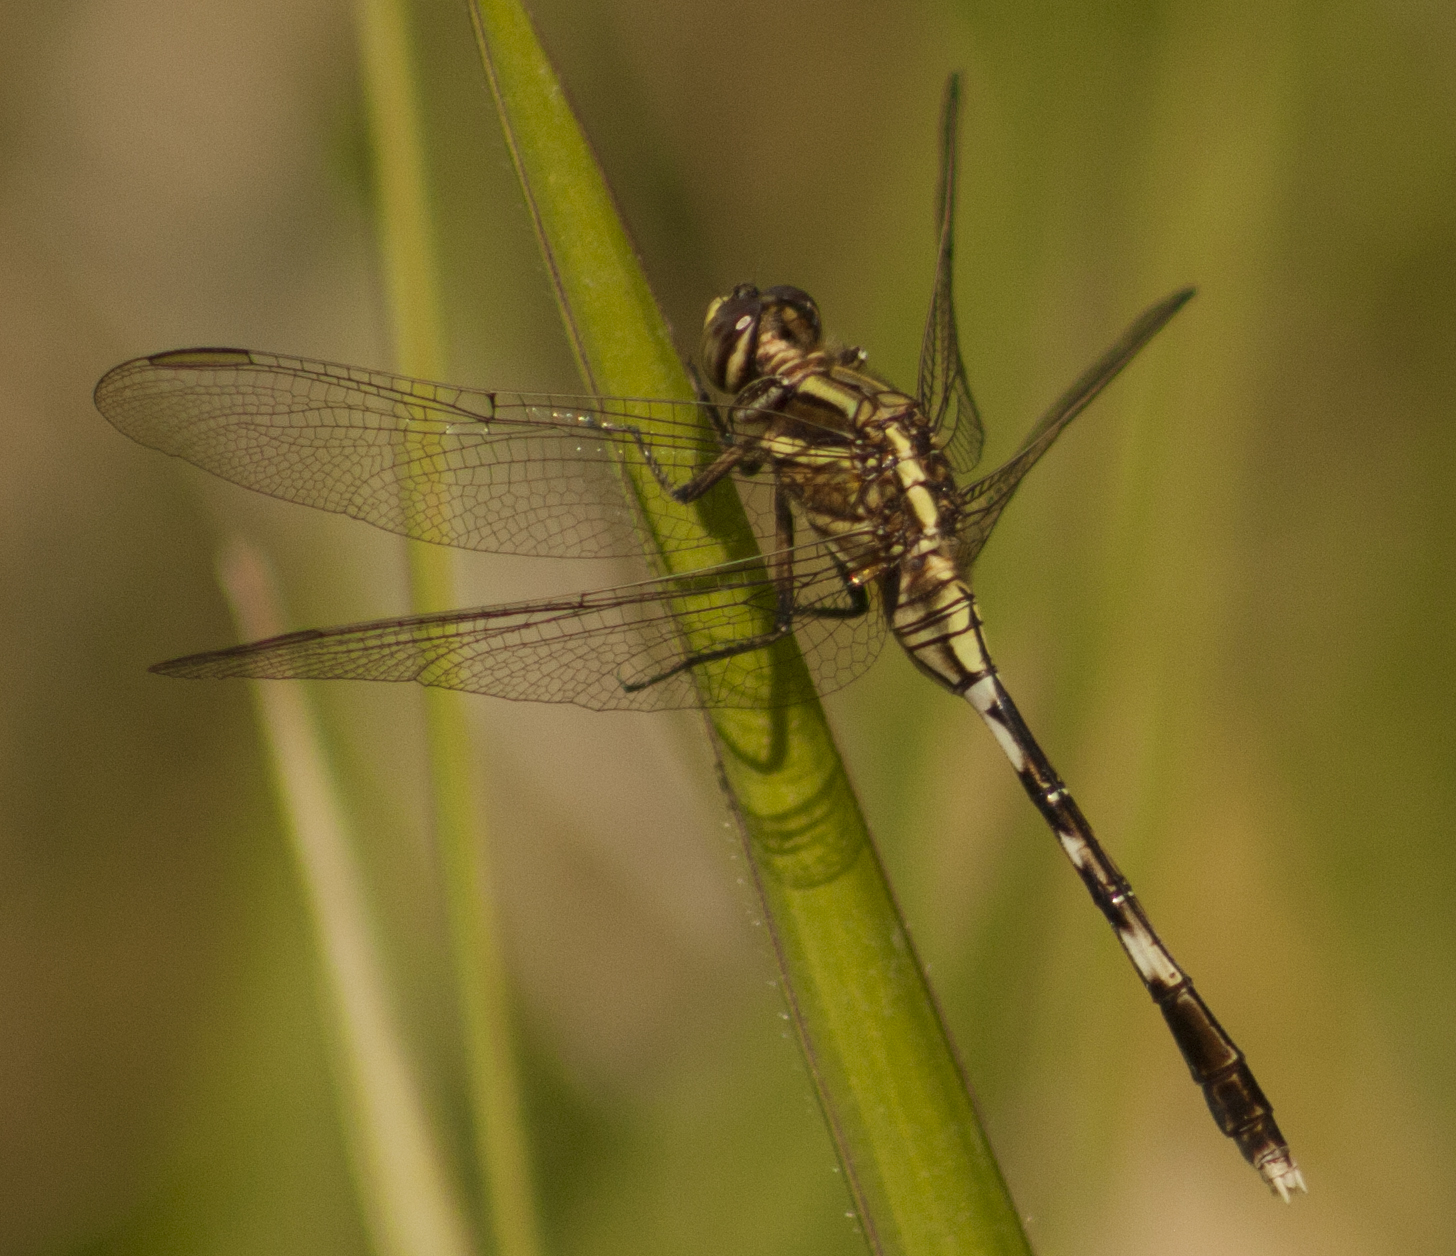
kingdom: Animalia
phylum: Arthropoda
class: Insecta
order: Odonata
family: Libellulidae
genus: Orthetrum
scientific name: Orthetrum sabina
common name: Slender skimmer
